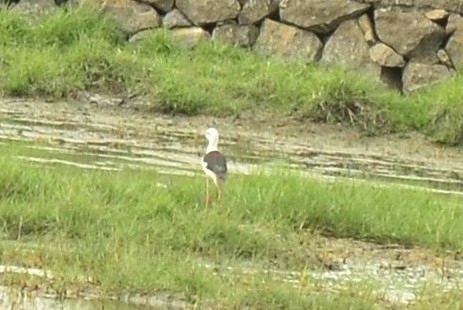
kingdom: Animalia
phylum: Chordata
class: Aves
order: Charadriiformes
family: Recurvirostridae
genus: Himantopus
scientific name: Himantopus himantopus
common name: Black-winged stilt
